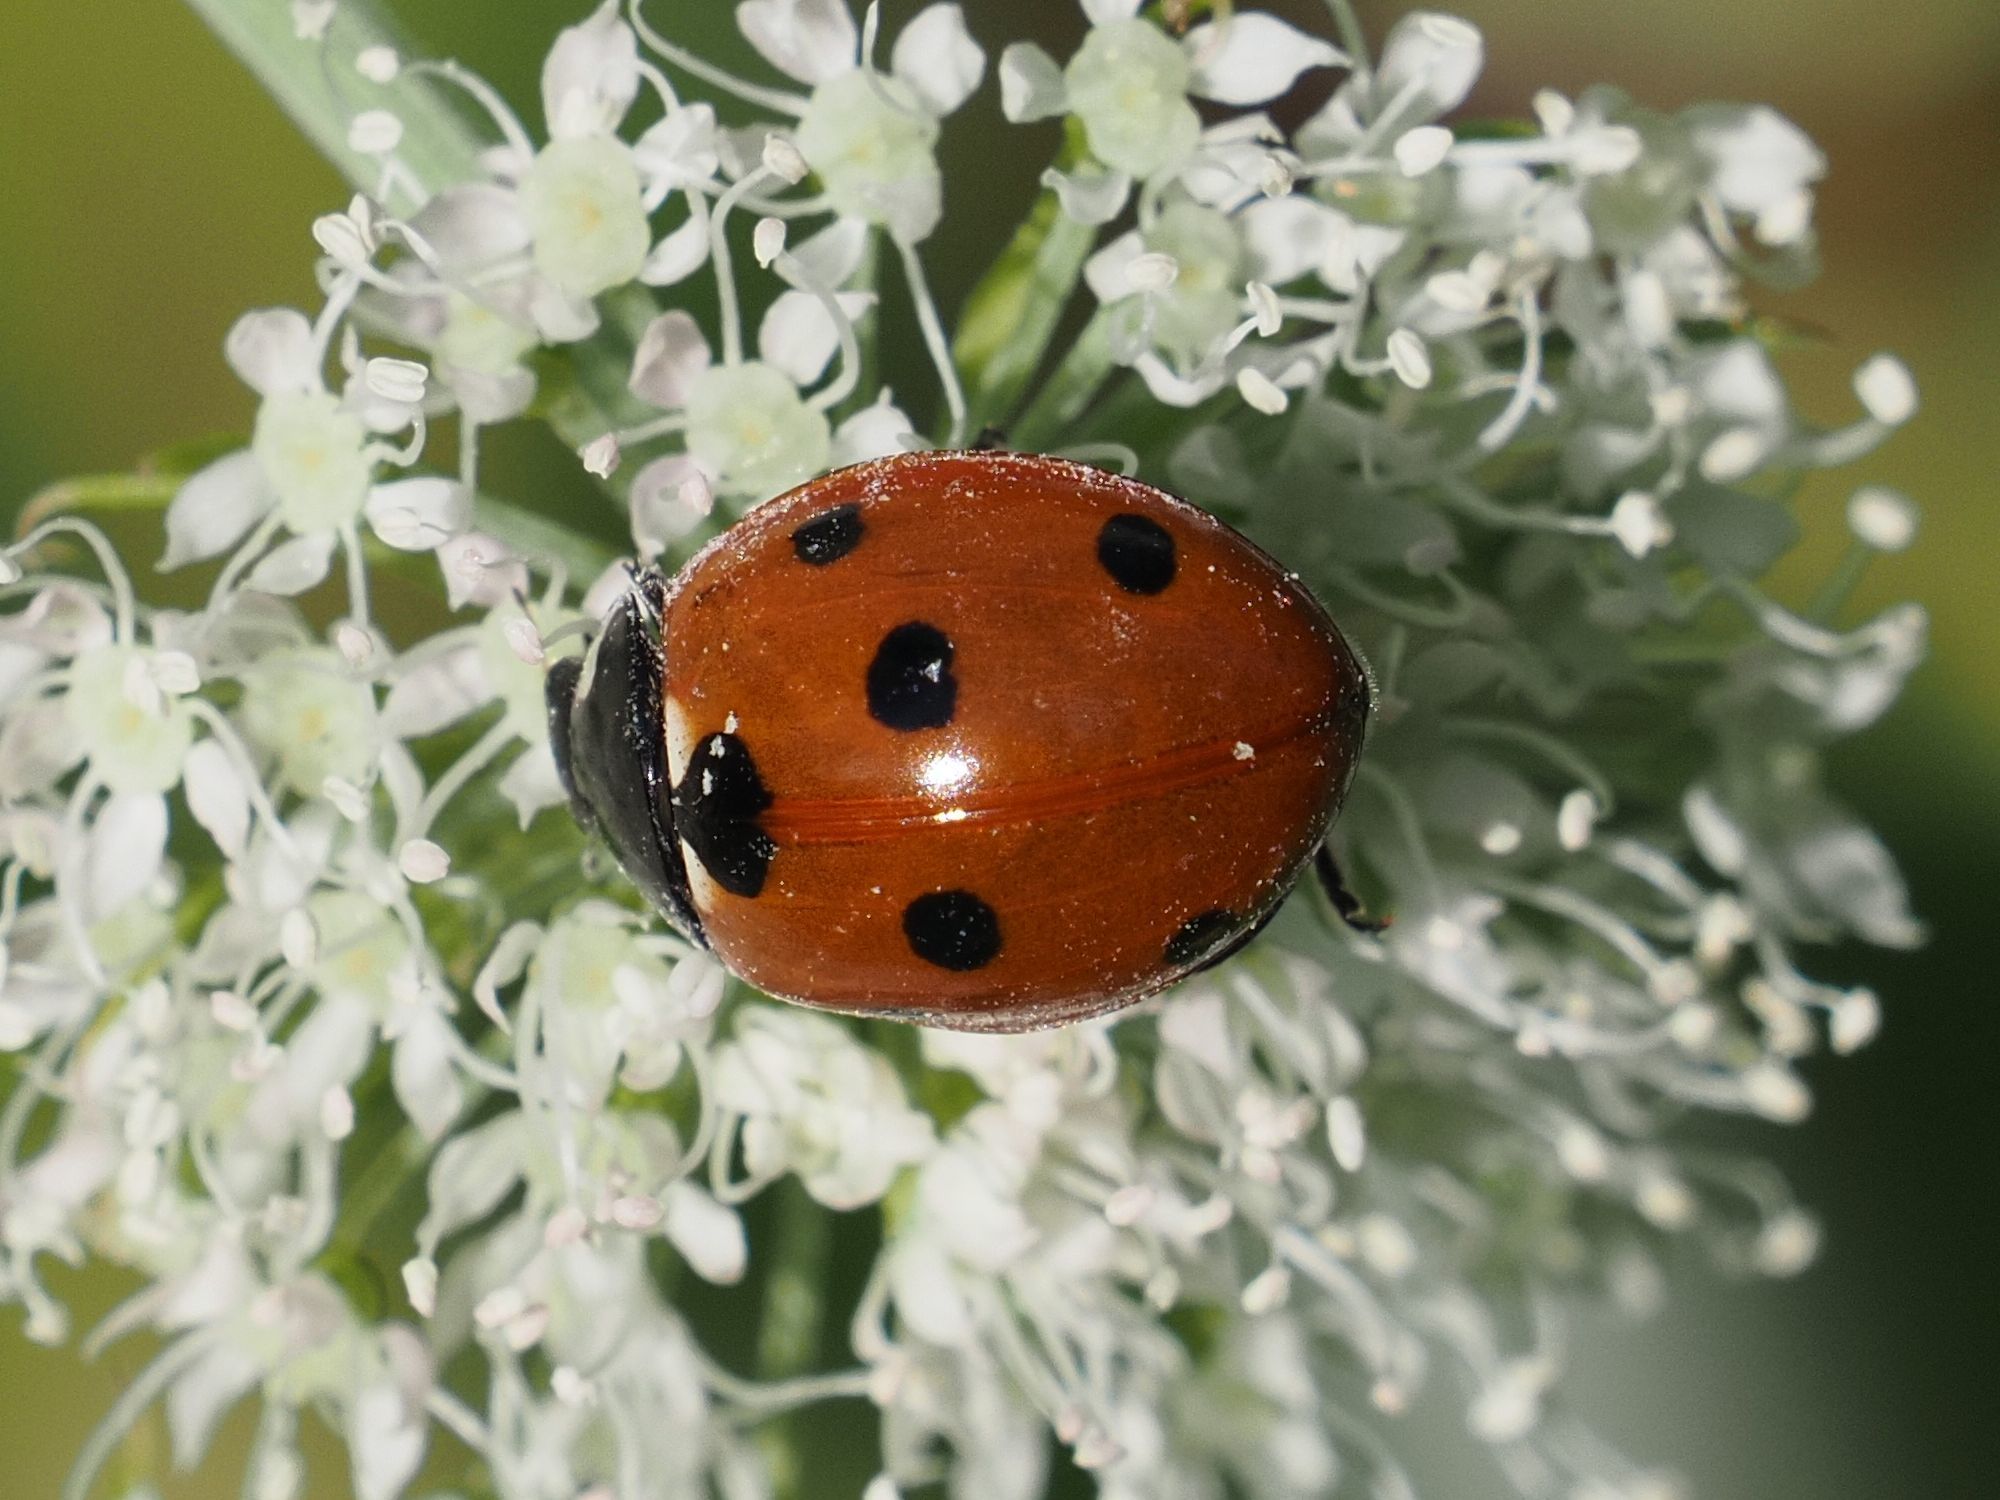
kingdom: Animalia
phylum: Arthropoda
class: Insecta
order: Coleoptera
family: Coccinellidae
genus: Coccinella
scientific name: Coccinella septempunctata
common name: Sevenspotted lady beetle
